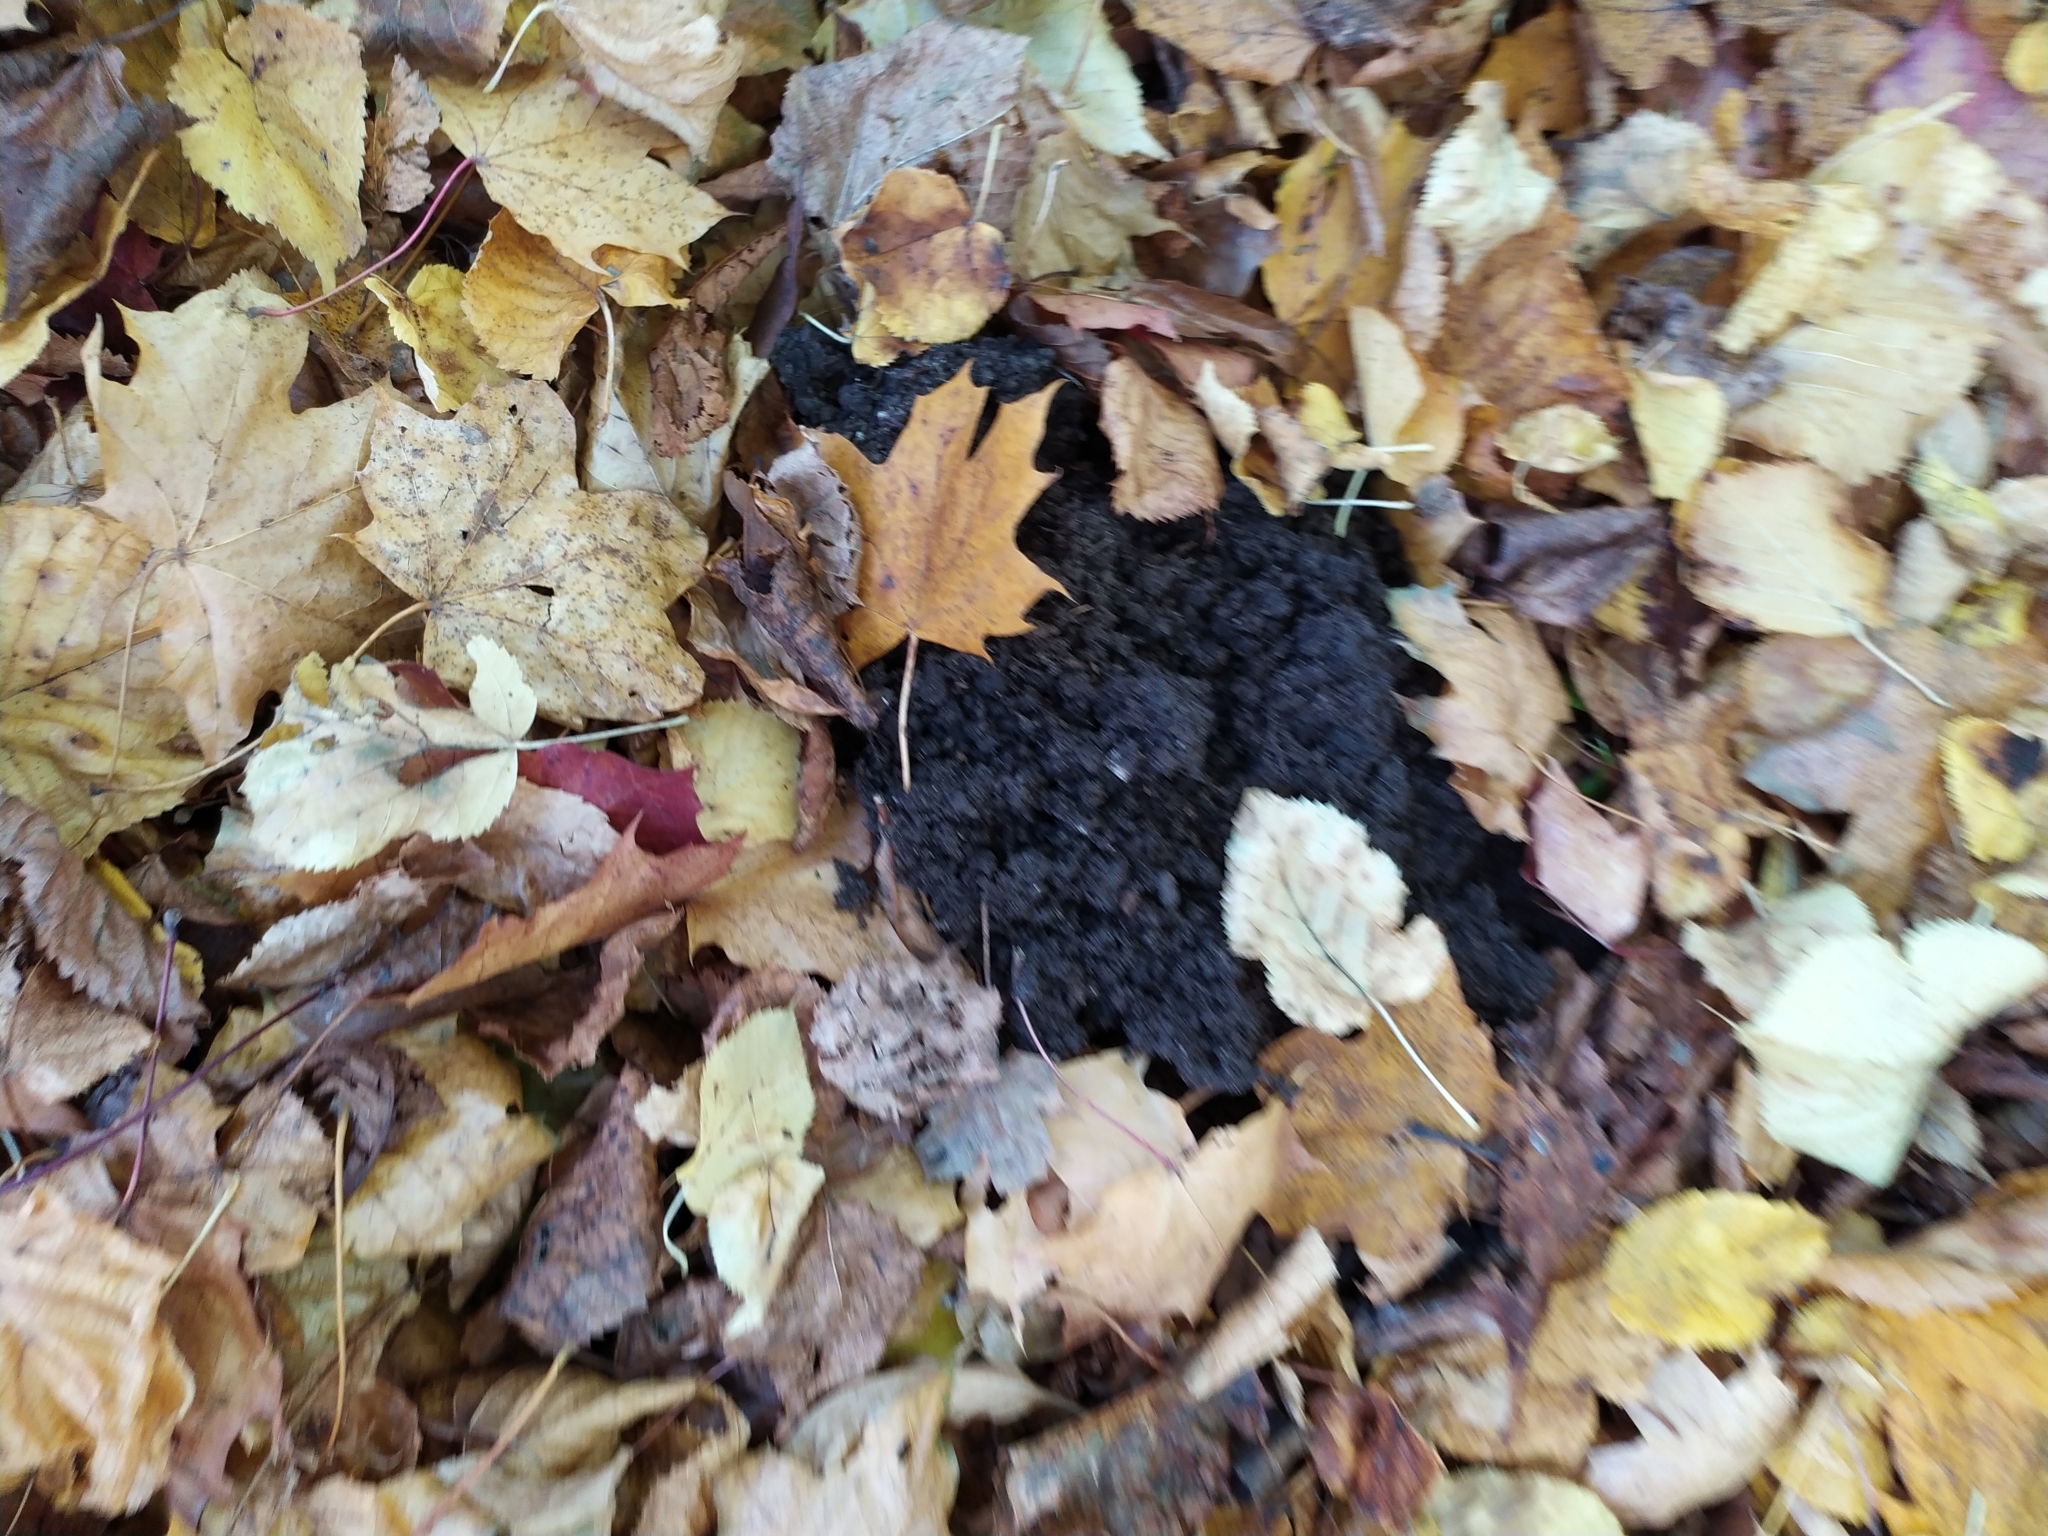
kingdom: Animalia
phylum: Chordata
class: Mammalia
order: Soricomorpha
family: Talpidae
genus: Talpa
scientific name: Talpa europaea
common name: European mole
